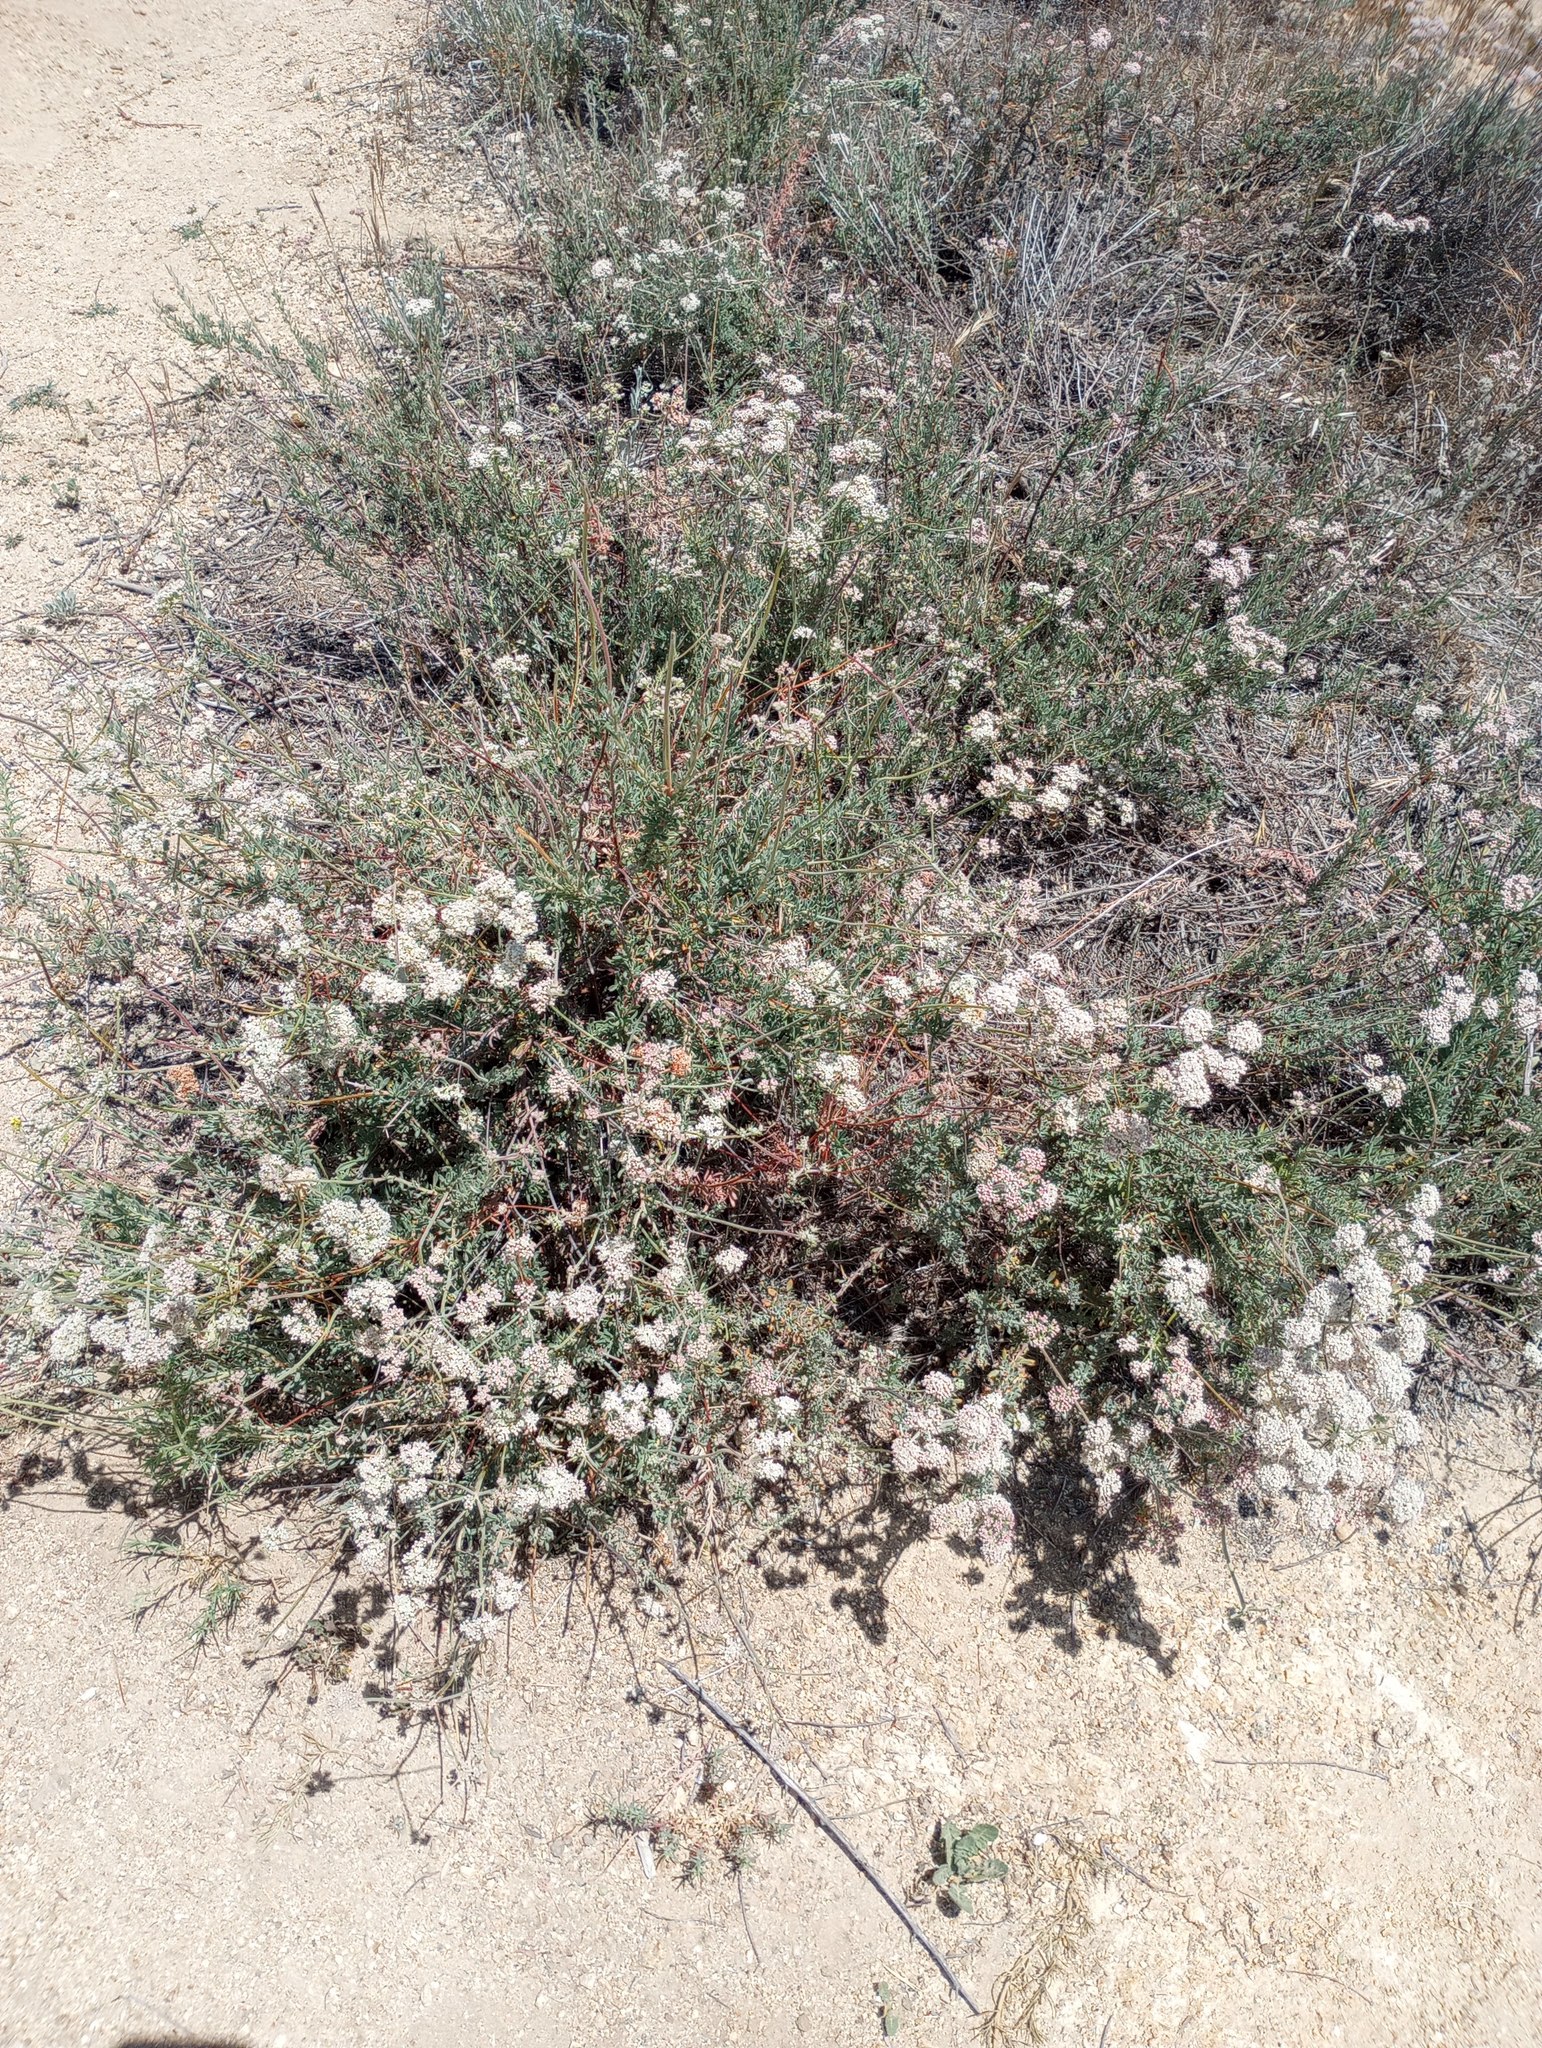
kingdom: Plantae
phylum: Tracheophyta
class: Magnoliopsida
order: Caryophyllales
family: Polygonaceae
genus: Eriogonum
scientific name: Eriogonum fasciculatum
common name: California wild buckwheat
